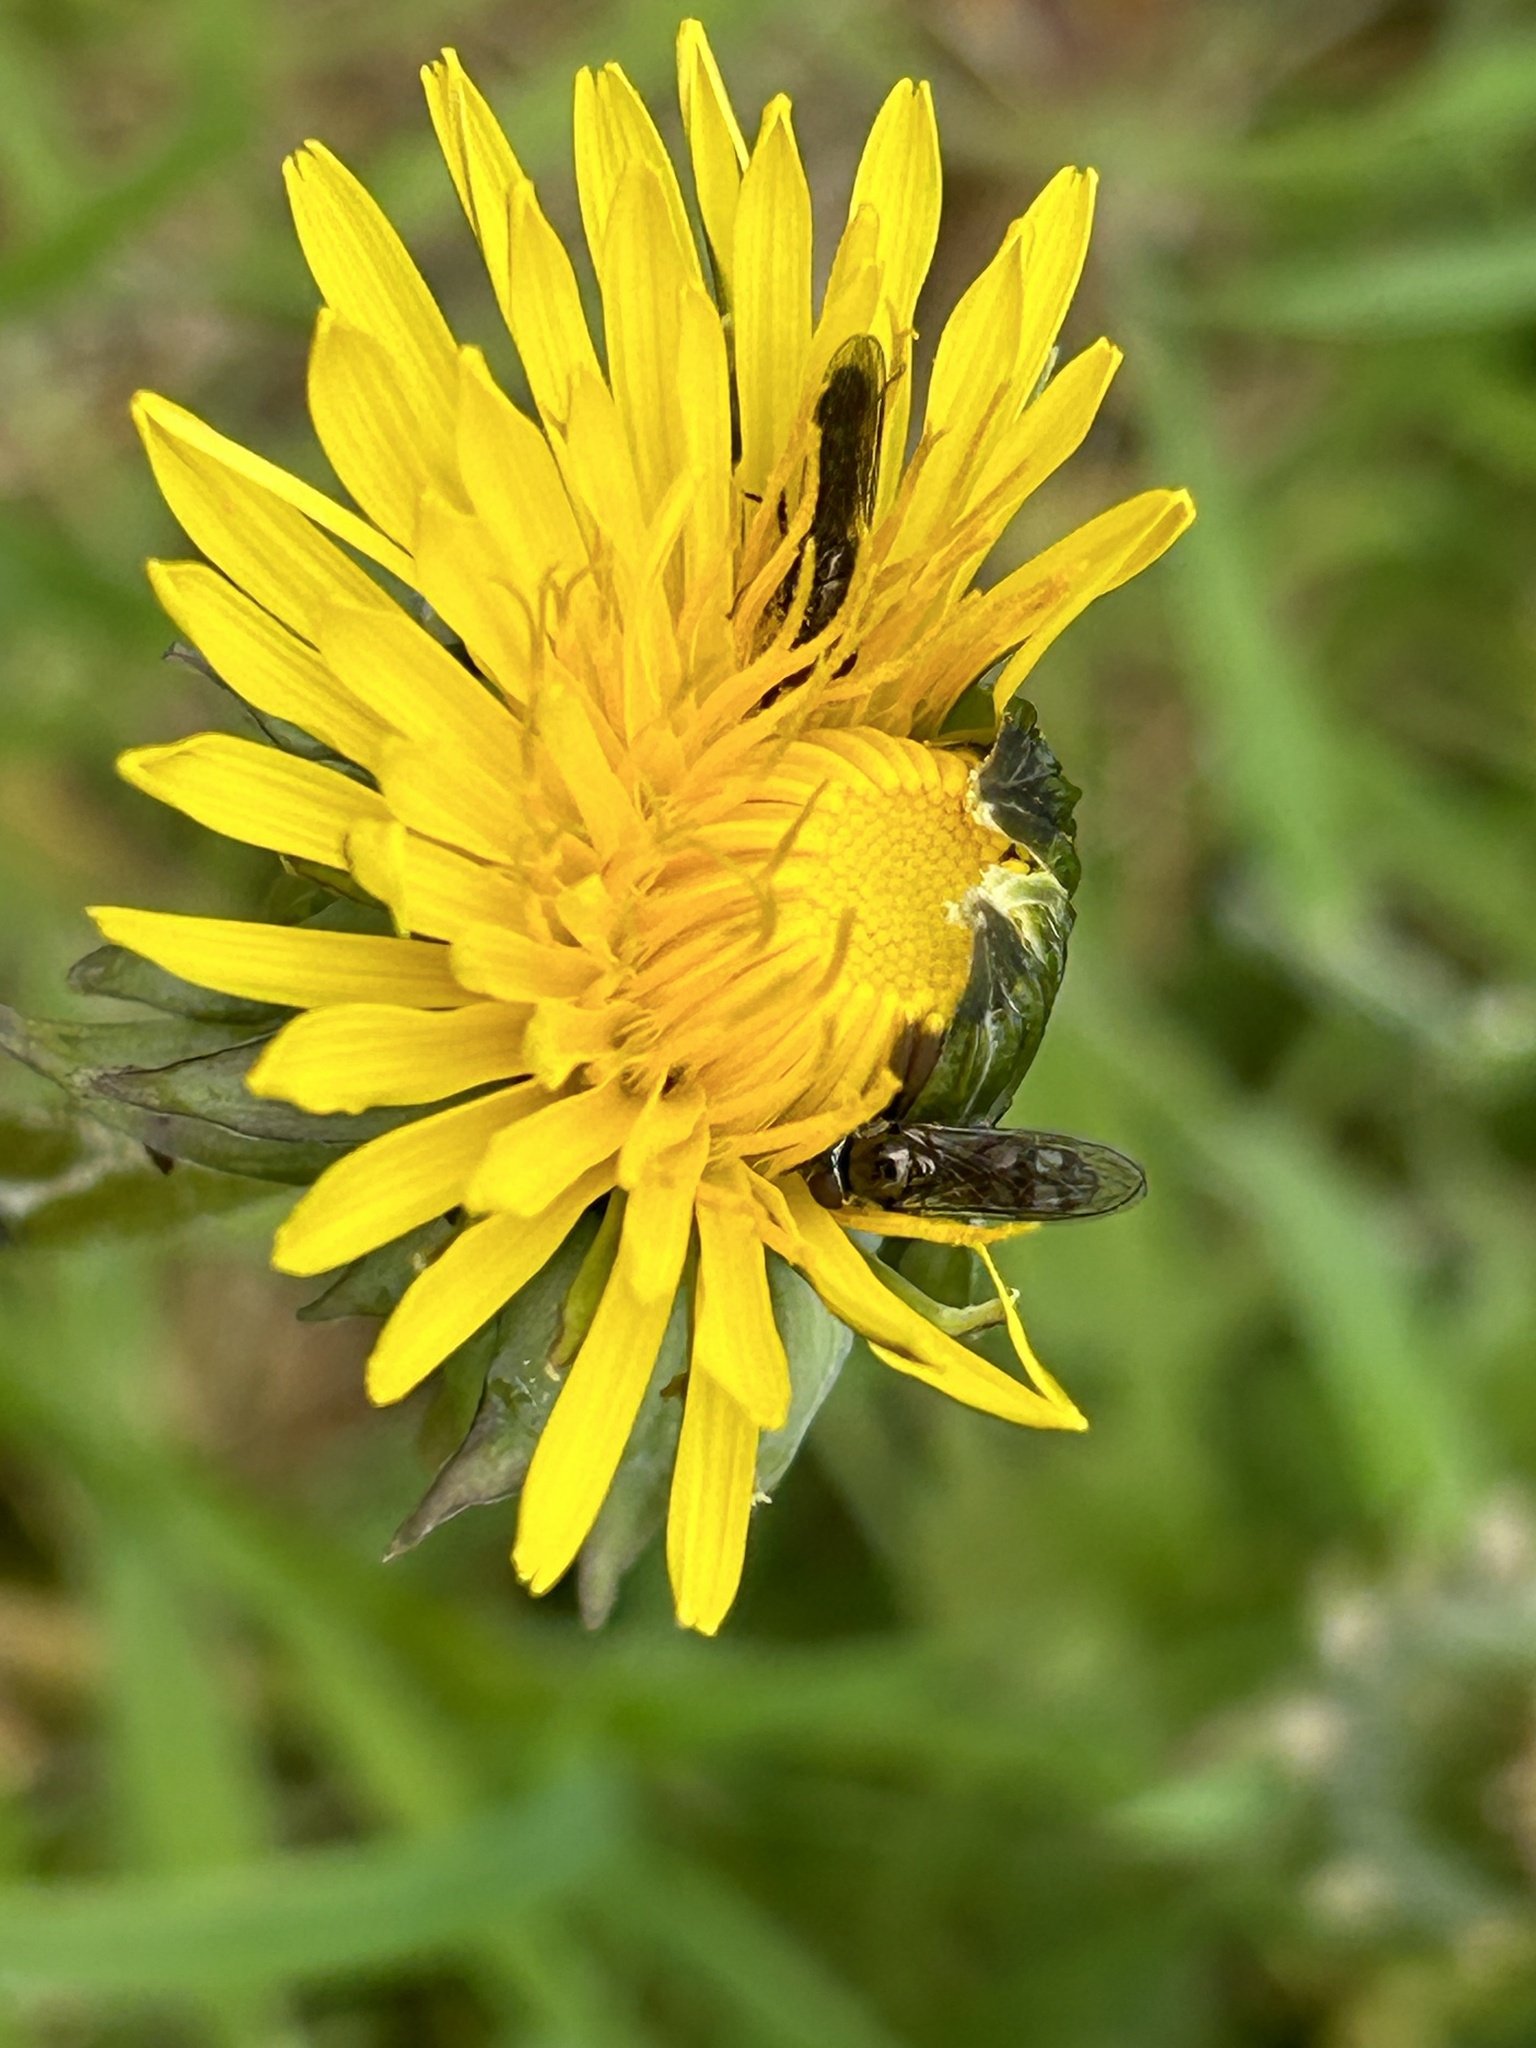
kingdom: Animalia
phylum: Arthropoda
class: Insecta
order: Diptera
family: Syrphidae
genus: Platycheirus
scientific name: Platycheirus
